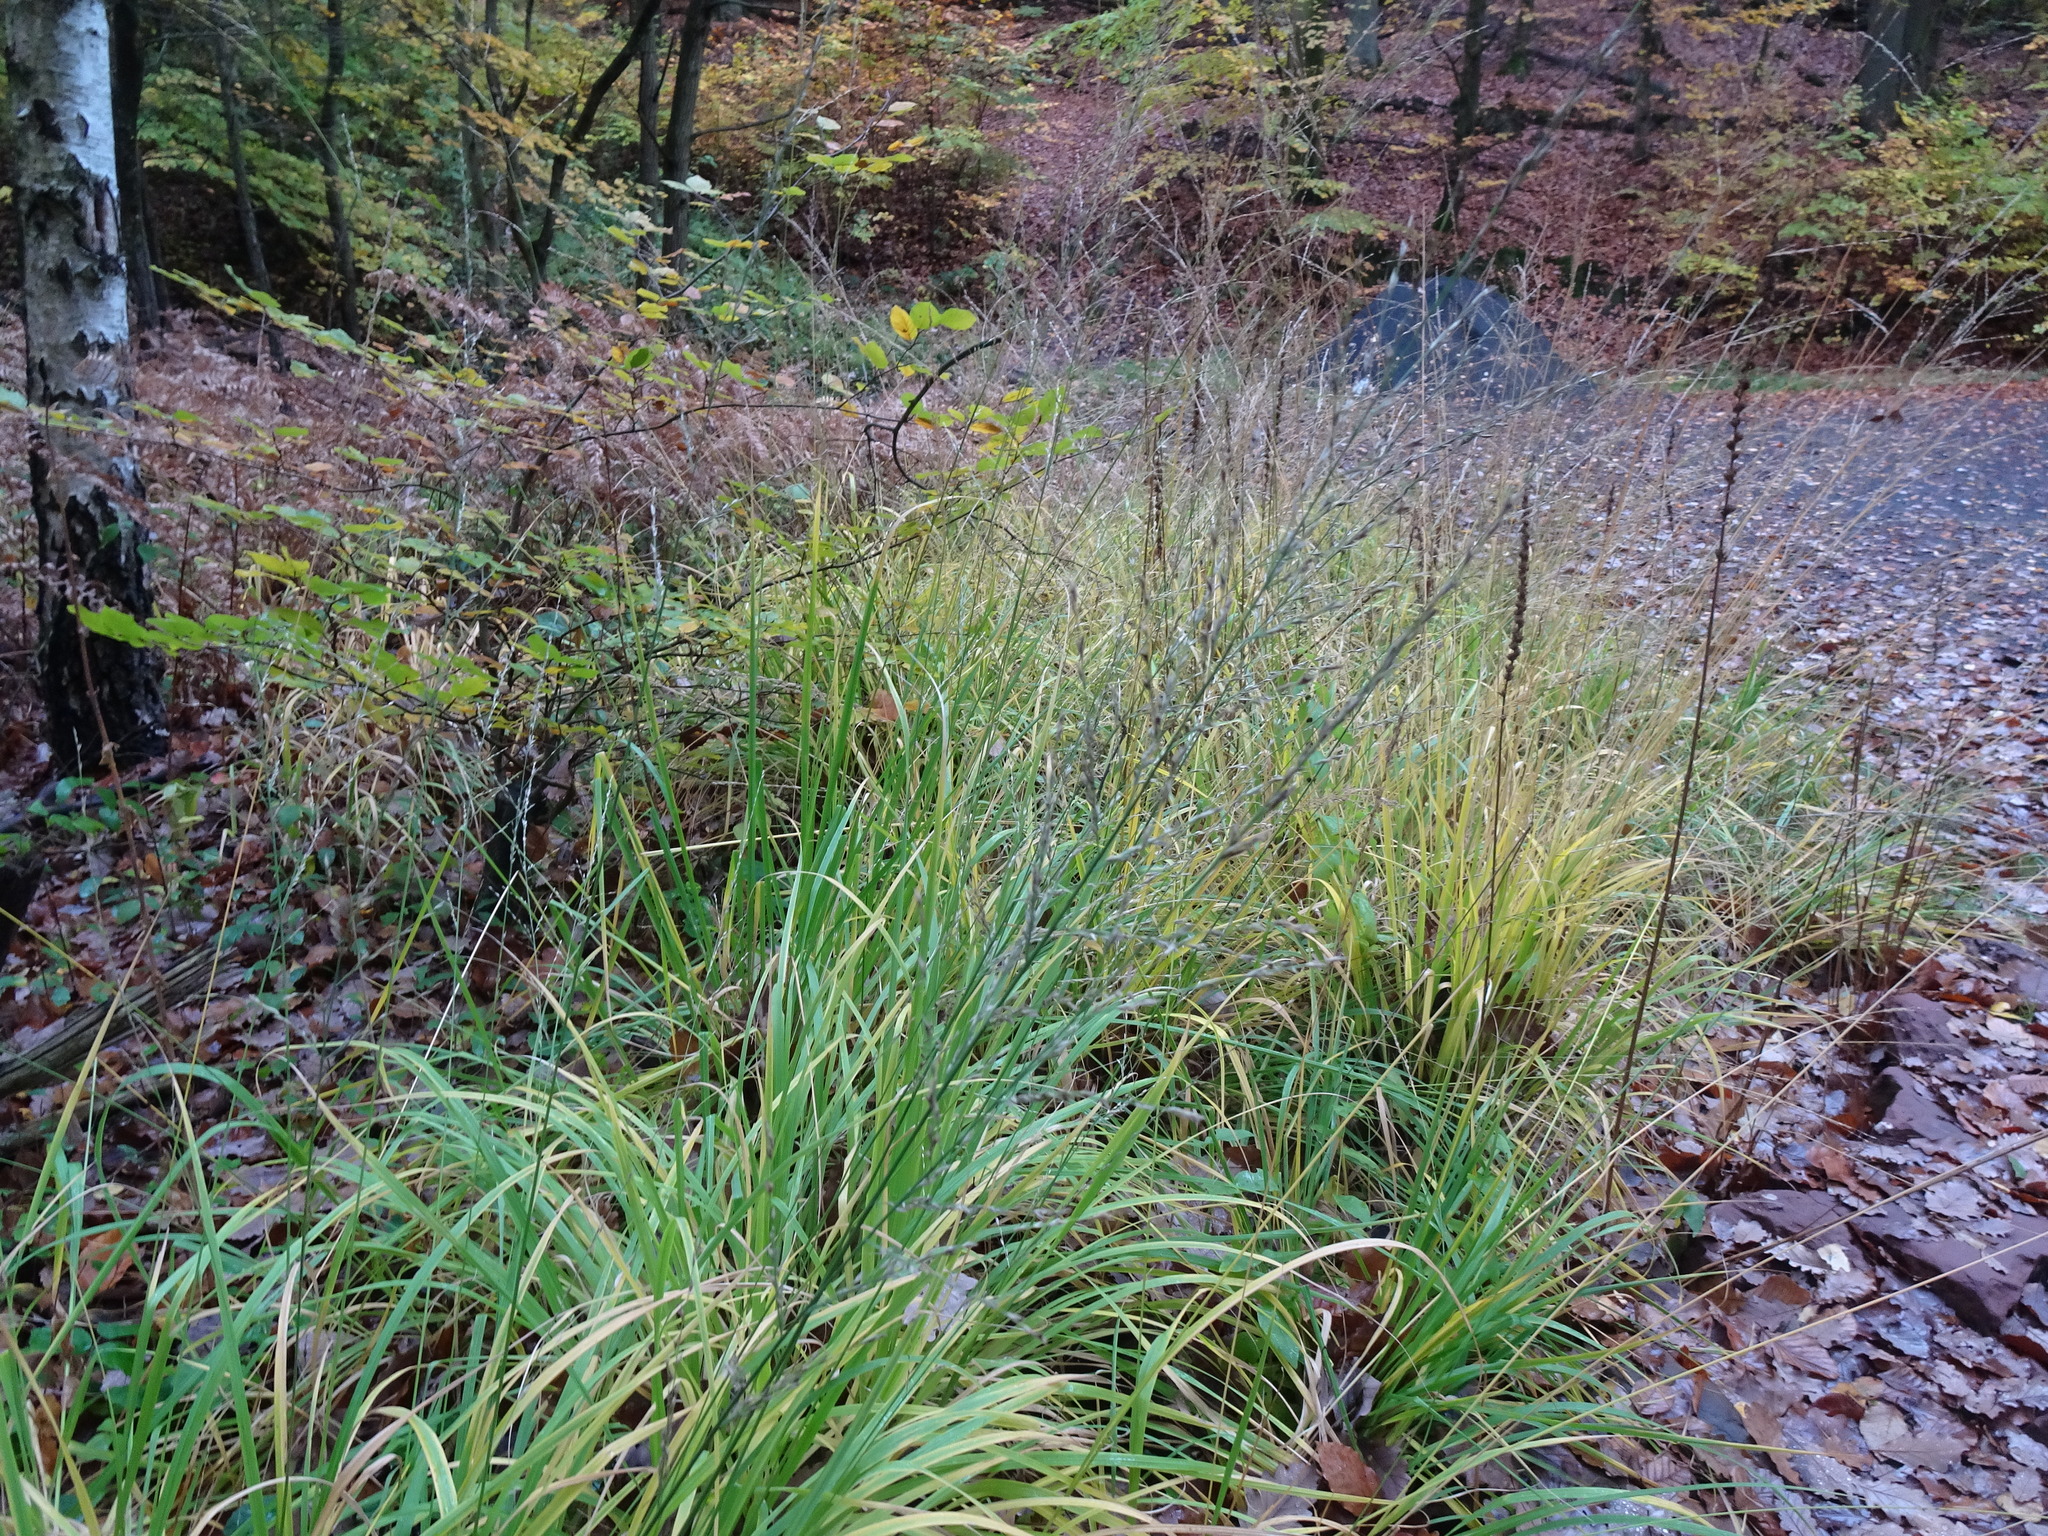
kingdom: Plantae
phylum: Tracheophyta
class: Liliopsida
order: Poales
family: Poaceae
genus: Molinia
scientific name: Molinia caerulea
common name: Purple moor-grass
